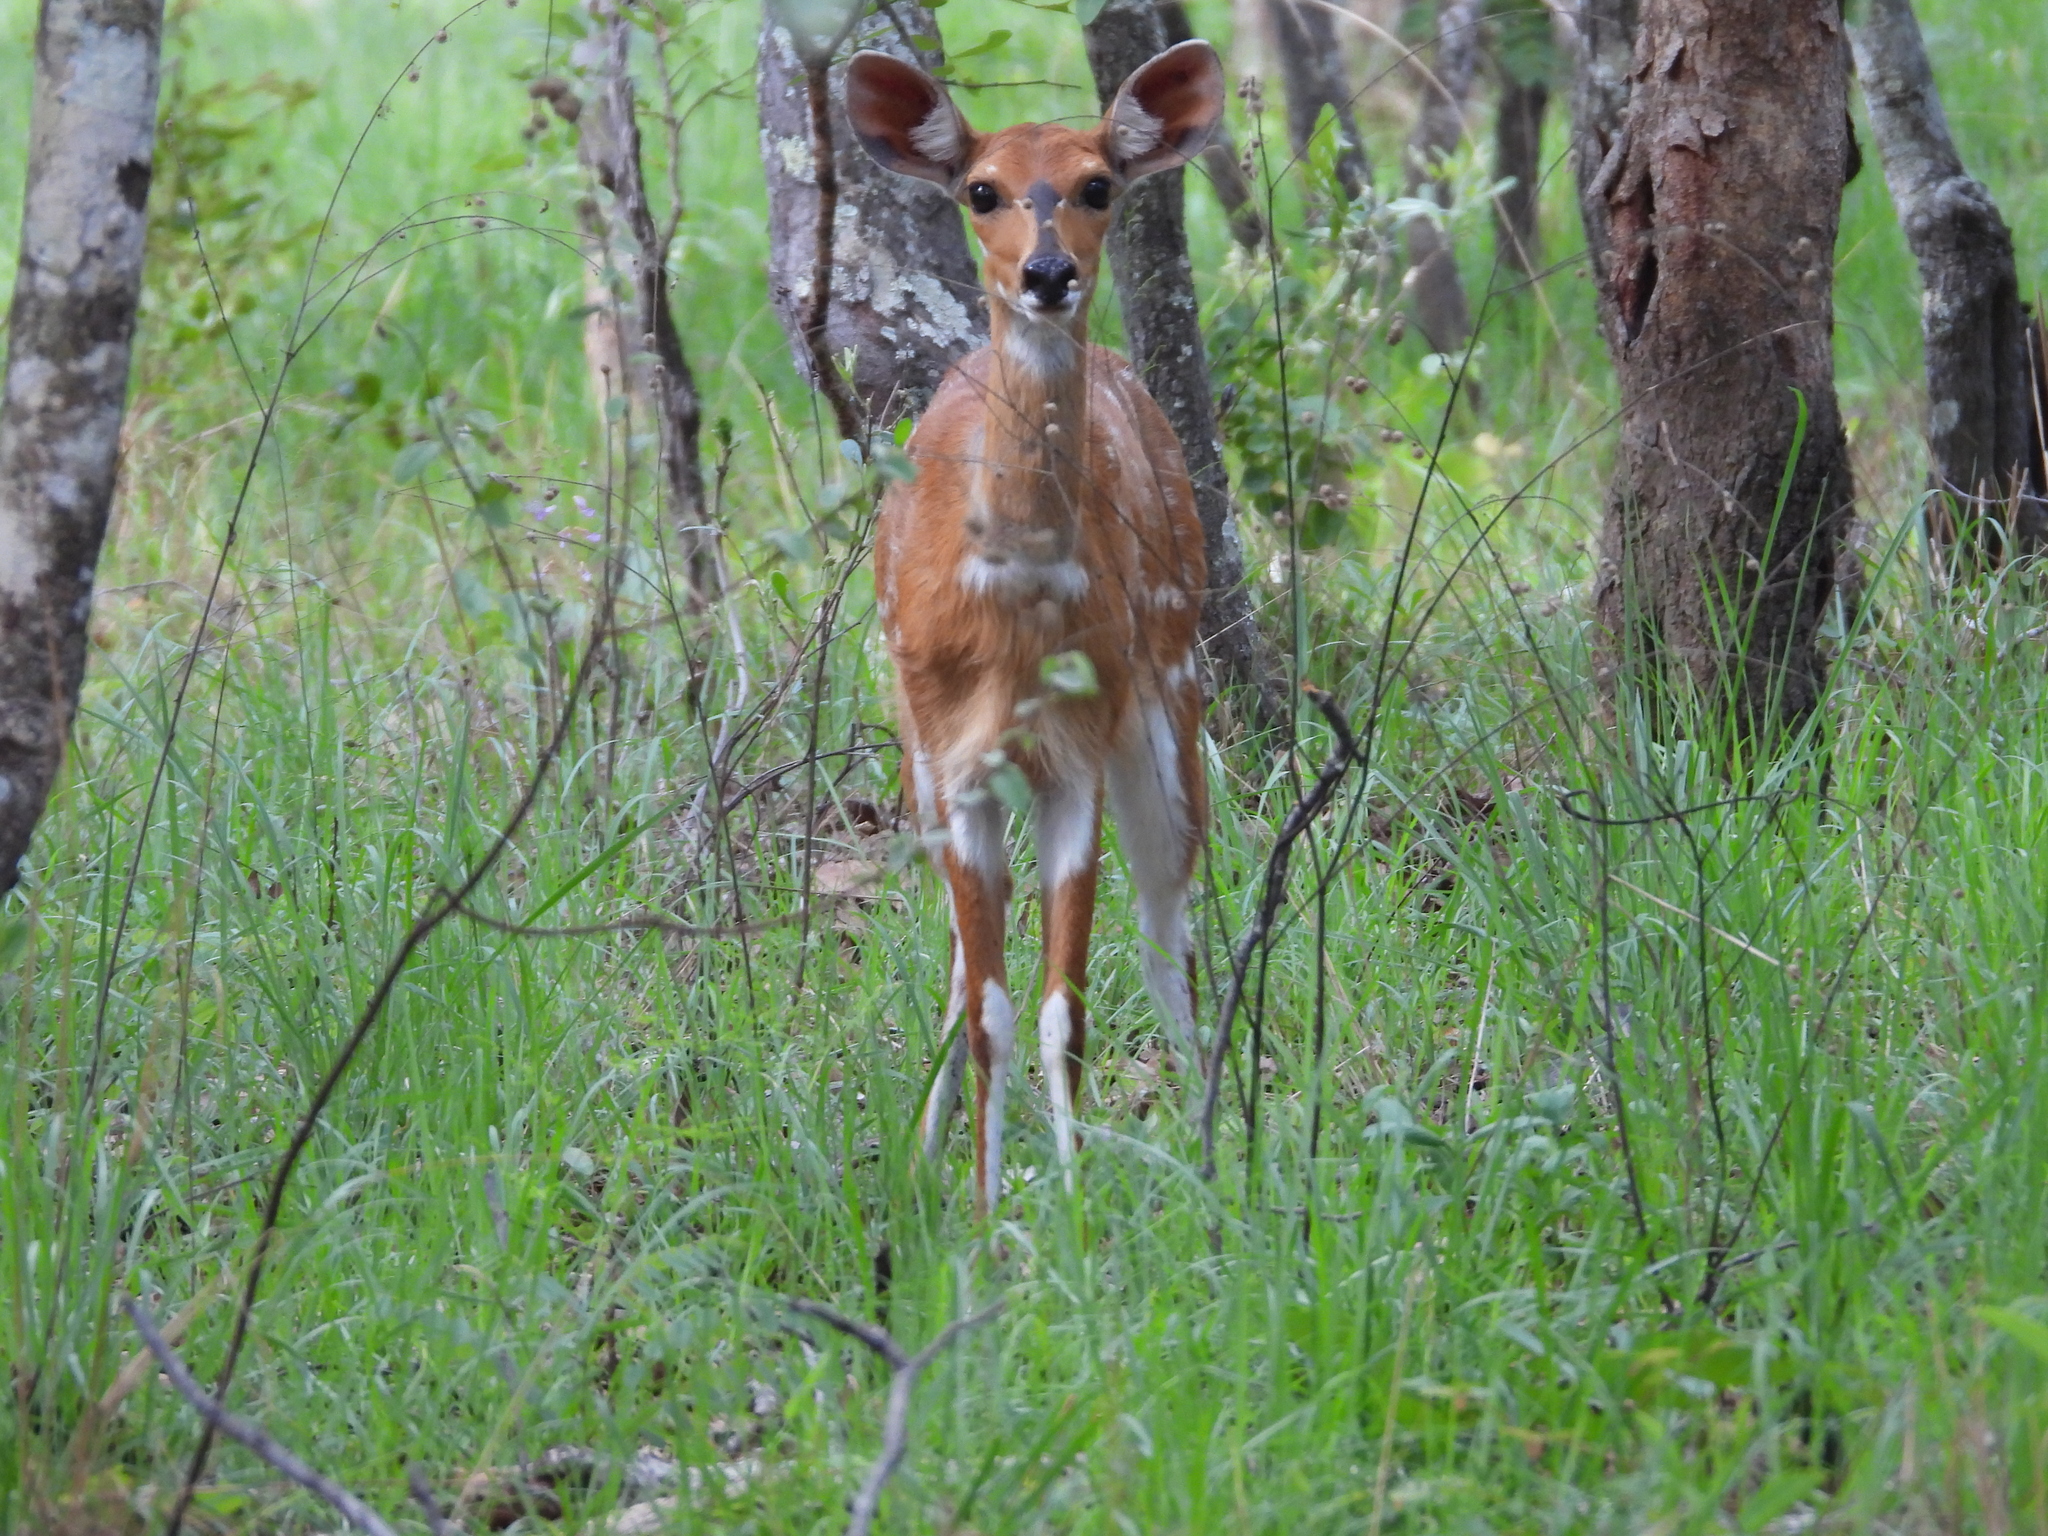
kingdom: Animalia
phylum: Chordata
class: Mammalia
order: Artiodactyla
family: Bovidae
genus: Tragelaphus
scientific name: Tragelaphus scriptus
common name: Bushbuck
